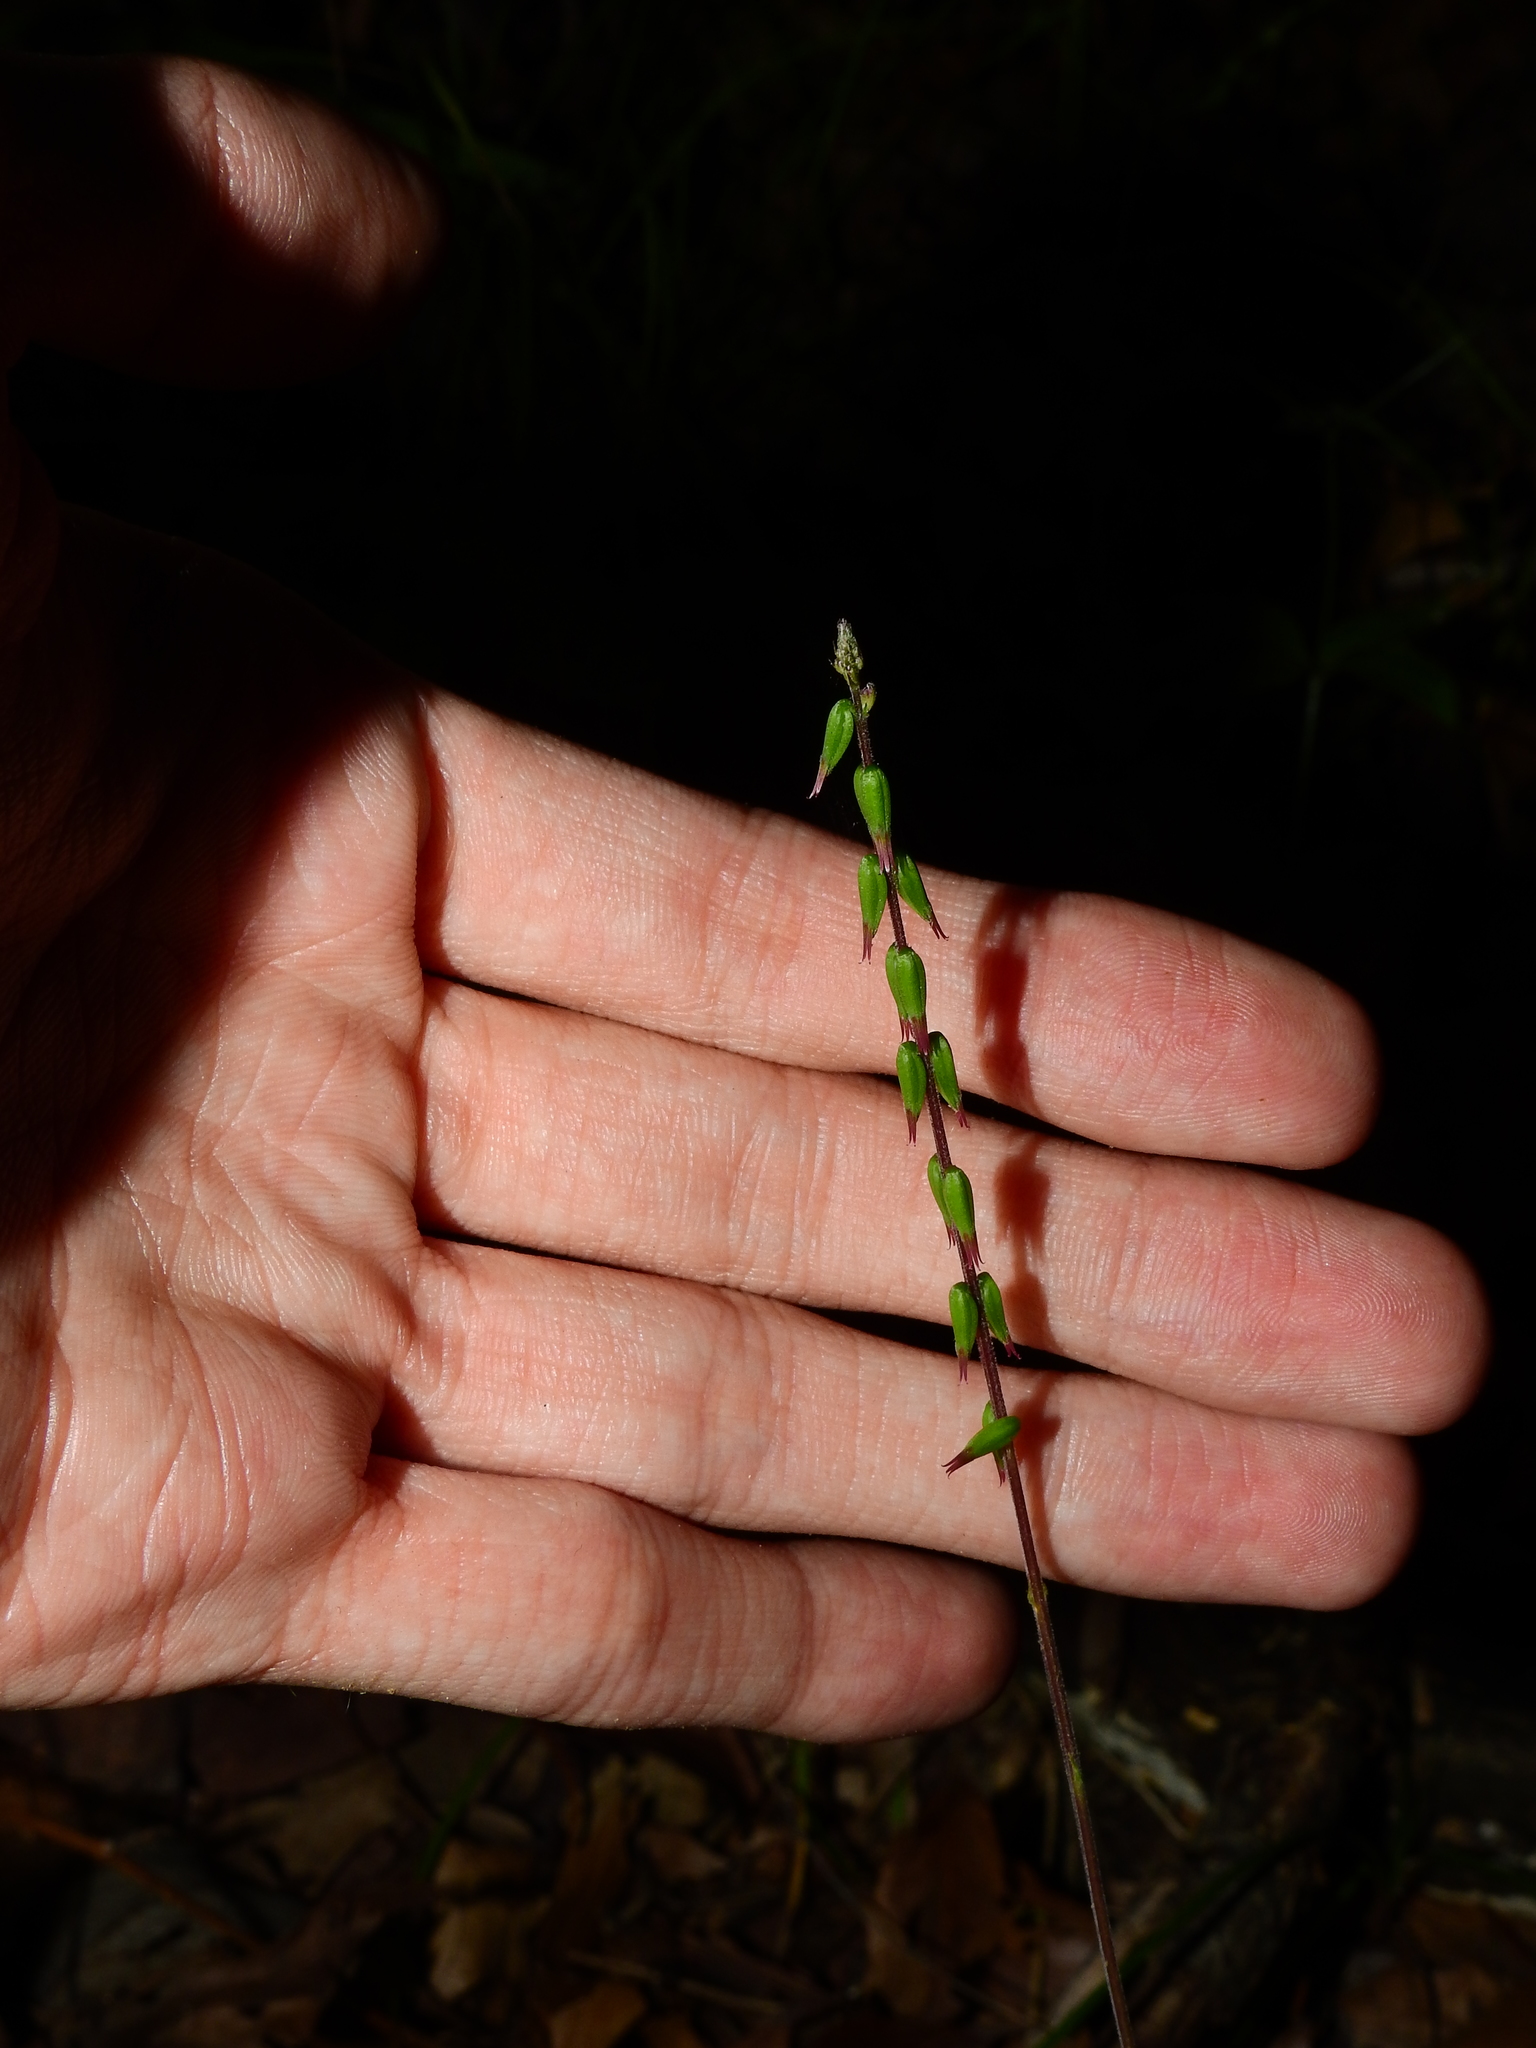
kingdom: Plantae
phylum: Tracheophyta
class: Magnoliopsida
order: Lamiales
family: Phrymaceae
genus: Phryma
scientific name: Phryma leptostachya
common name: American lopseed
